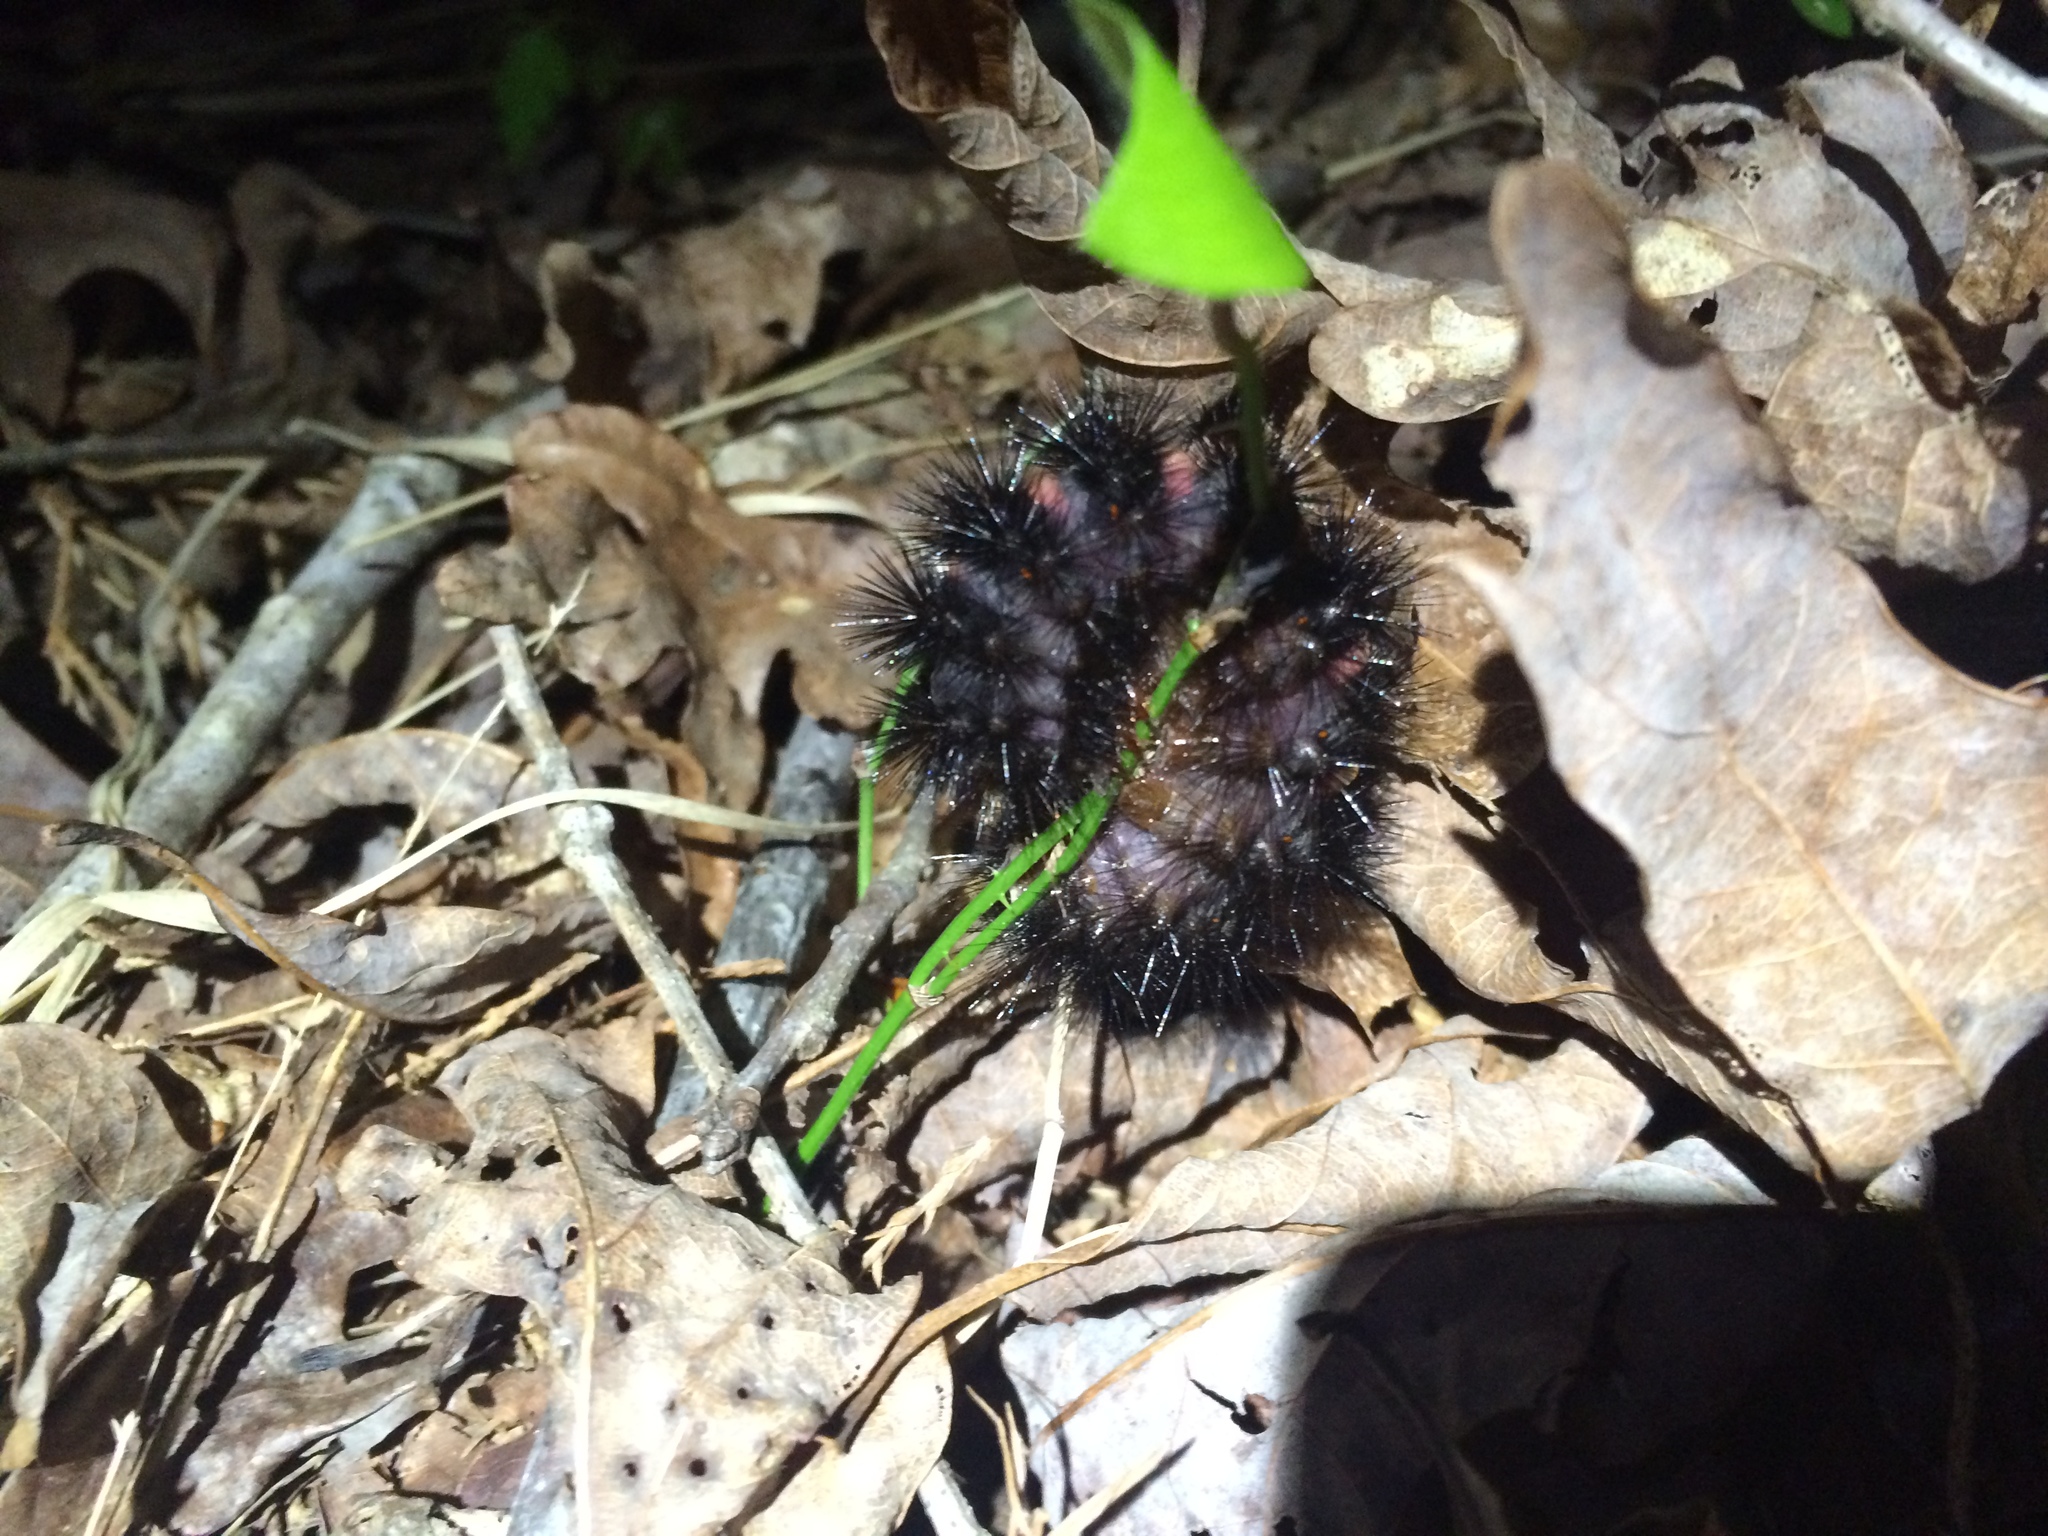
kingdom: Animalia
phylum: Arthropoda
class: Insecta
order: Lepidoptera
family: Erebidae
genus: Hypercompe
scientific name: Hypercompe scribonia
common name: Giant leopard moth
